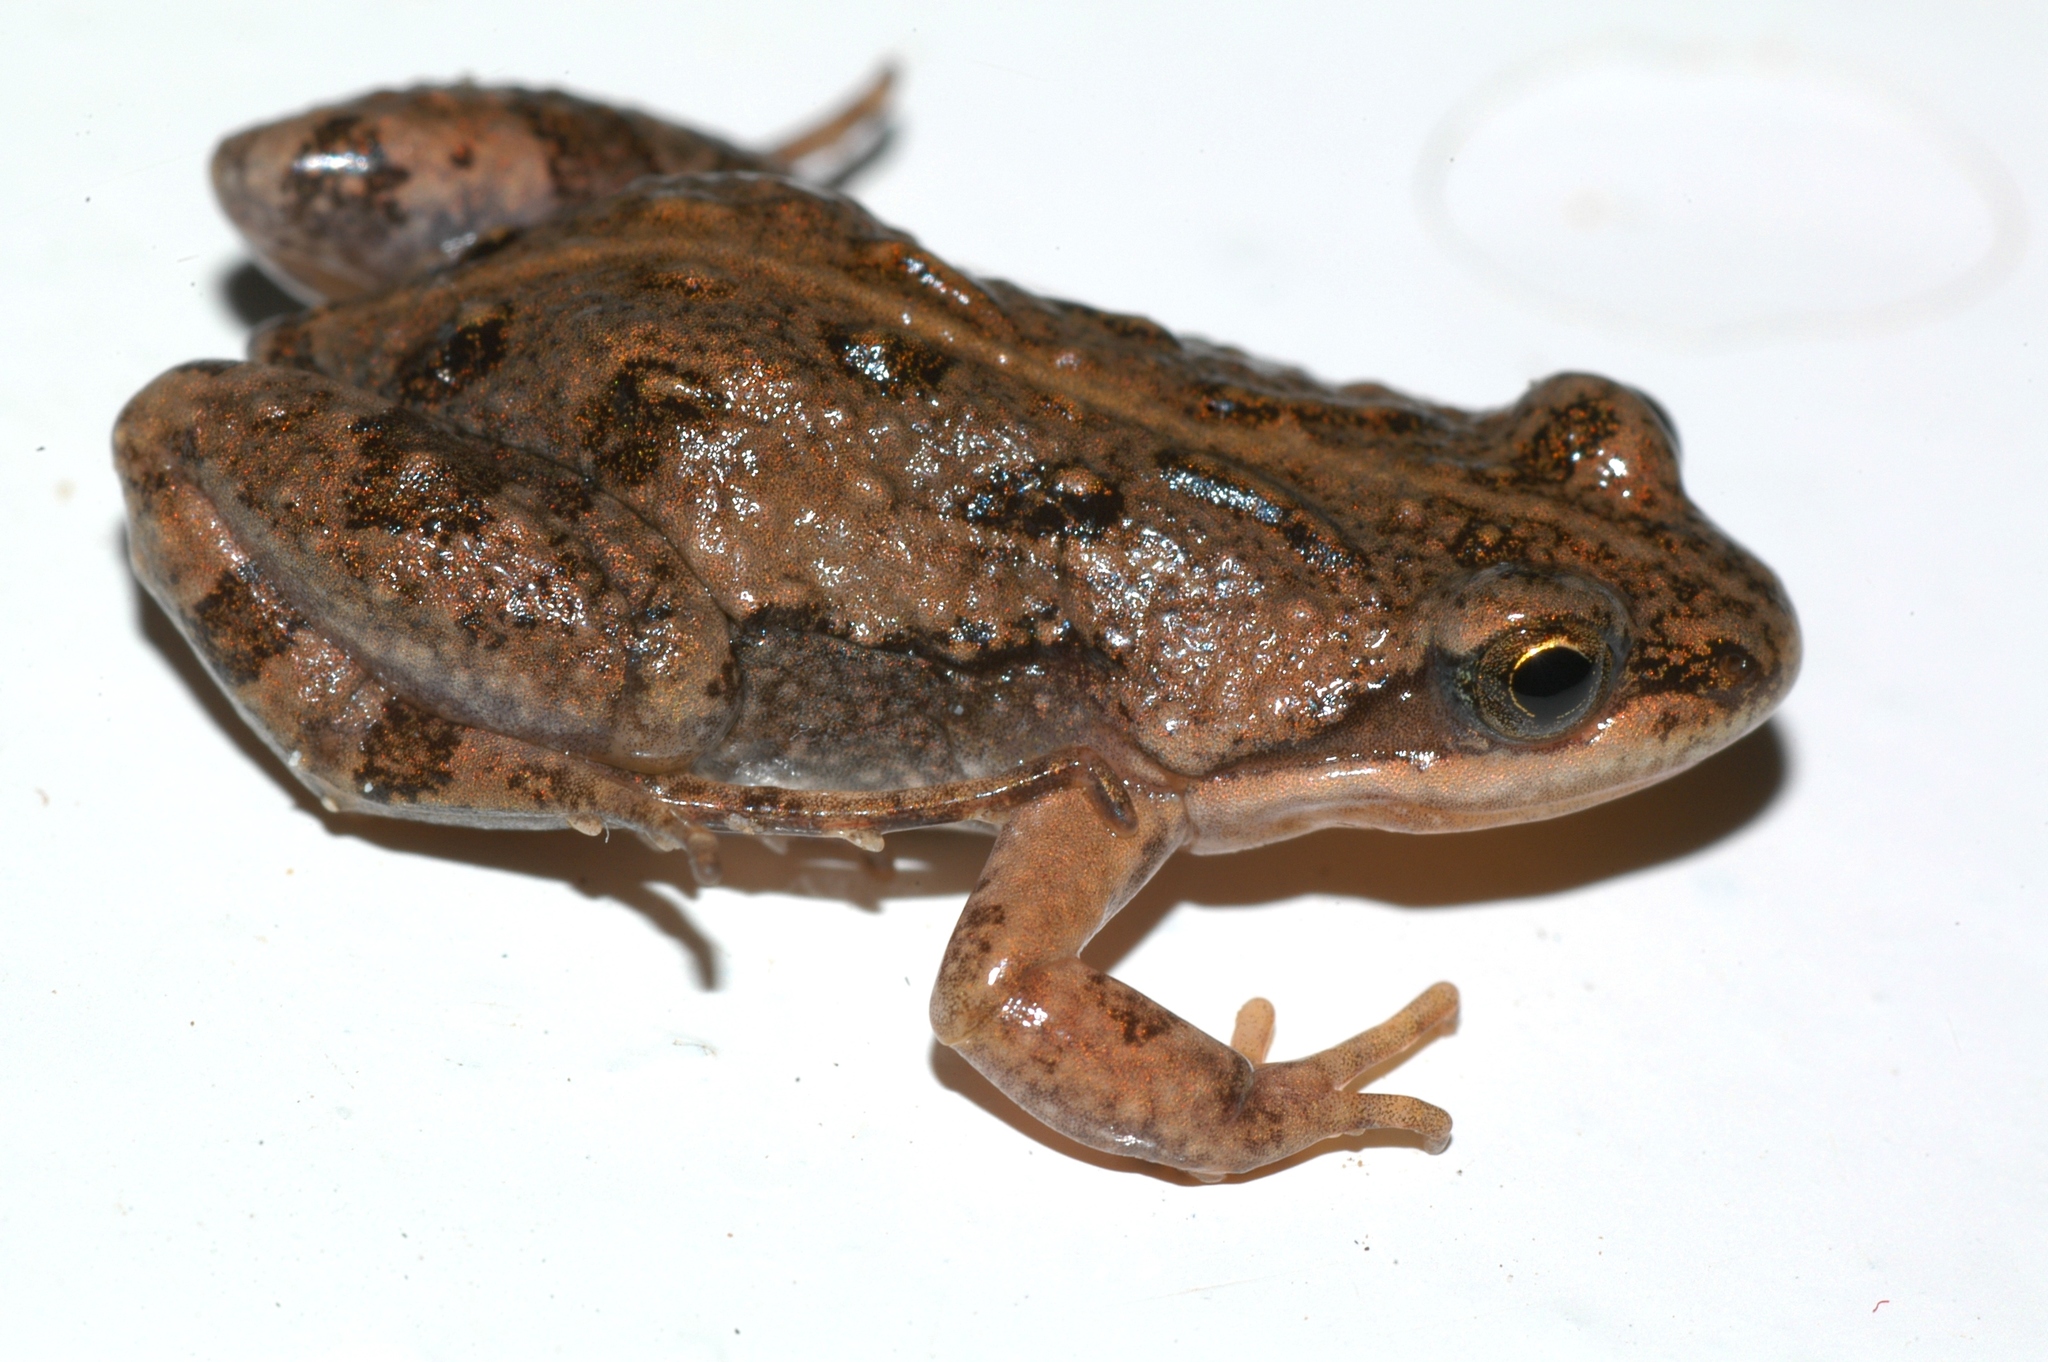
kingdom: Animalia
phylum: Chordata
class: Amphibia
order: Anura
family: Pyxicephalidae
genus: Cacosternum
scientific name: Cacosternum boettgeri
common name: Boettger's frog
